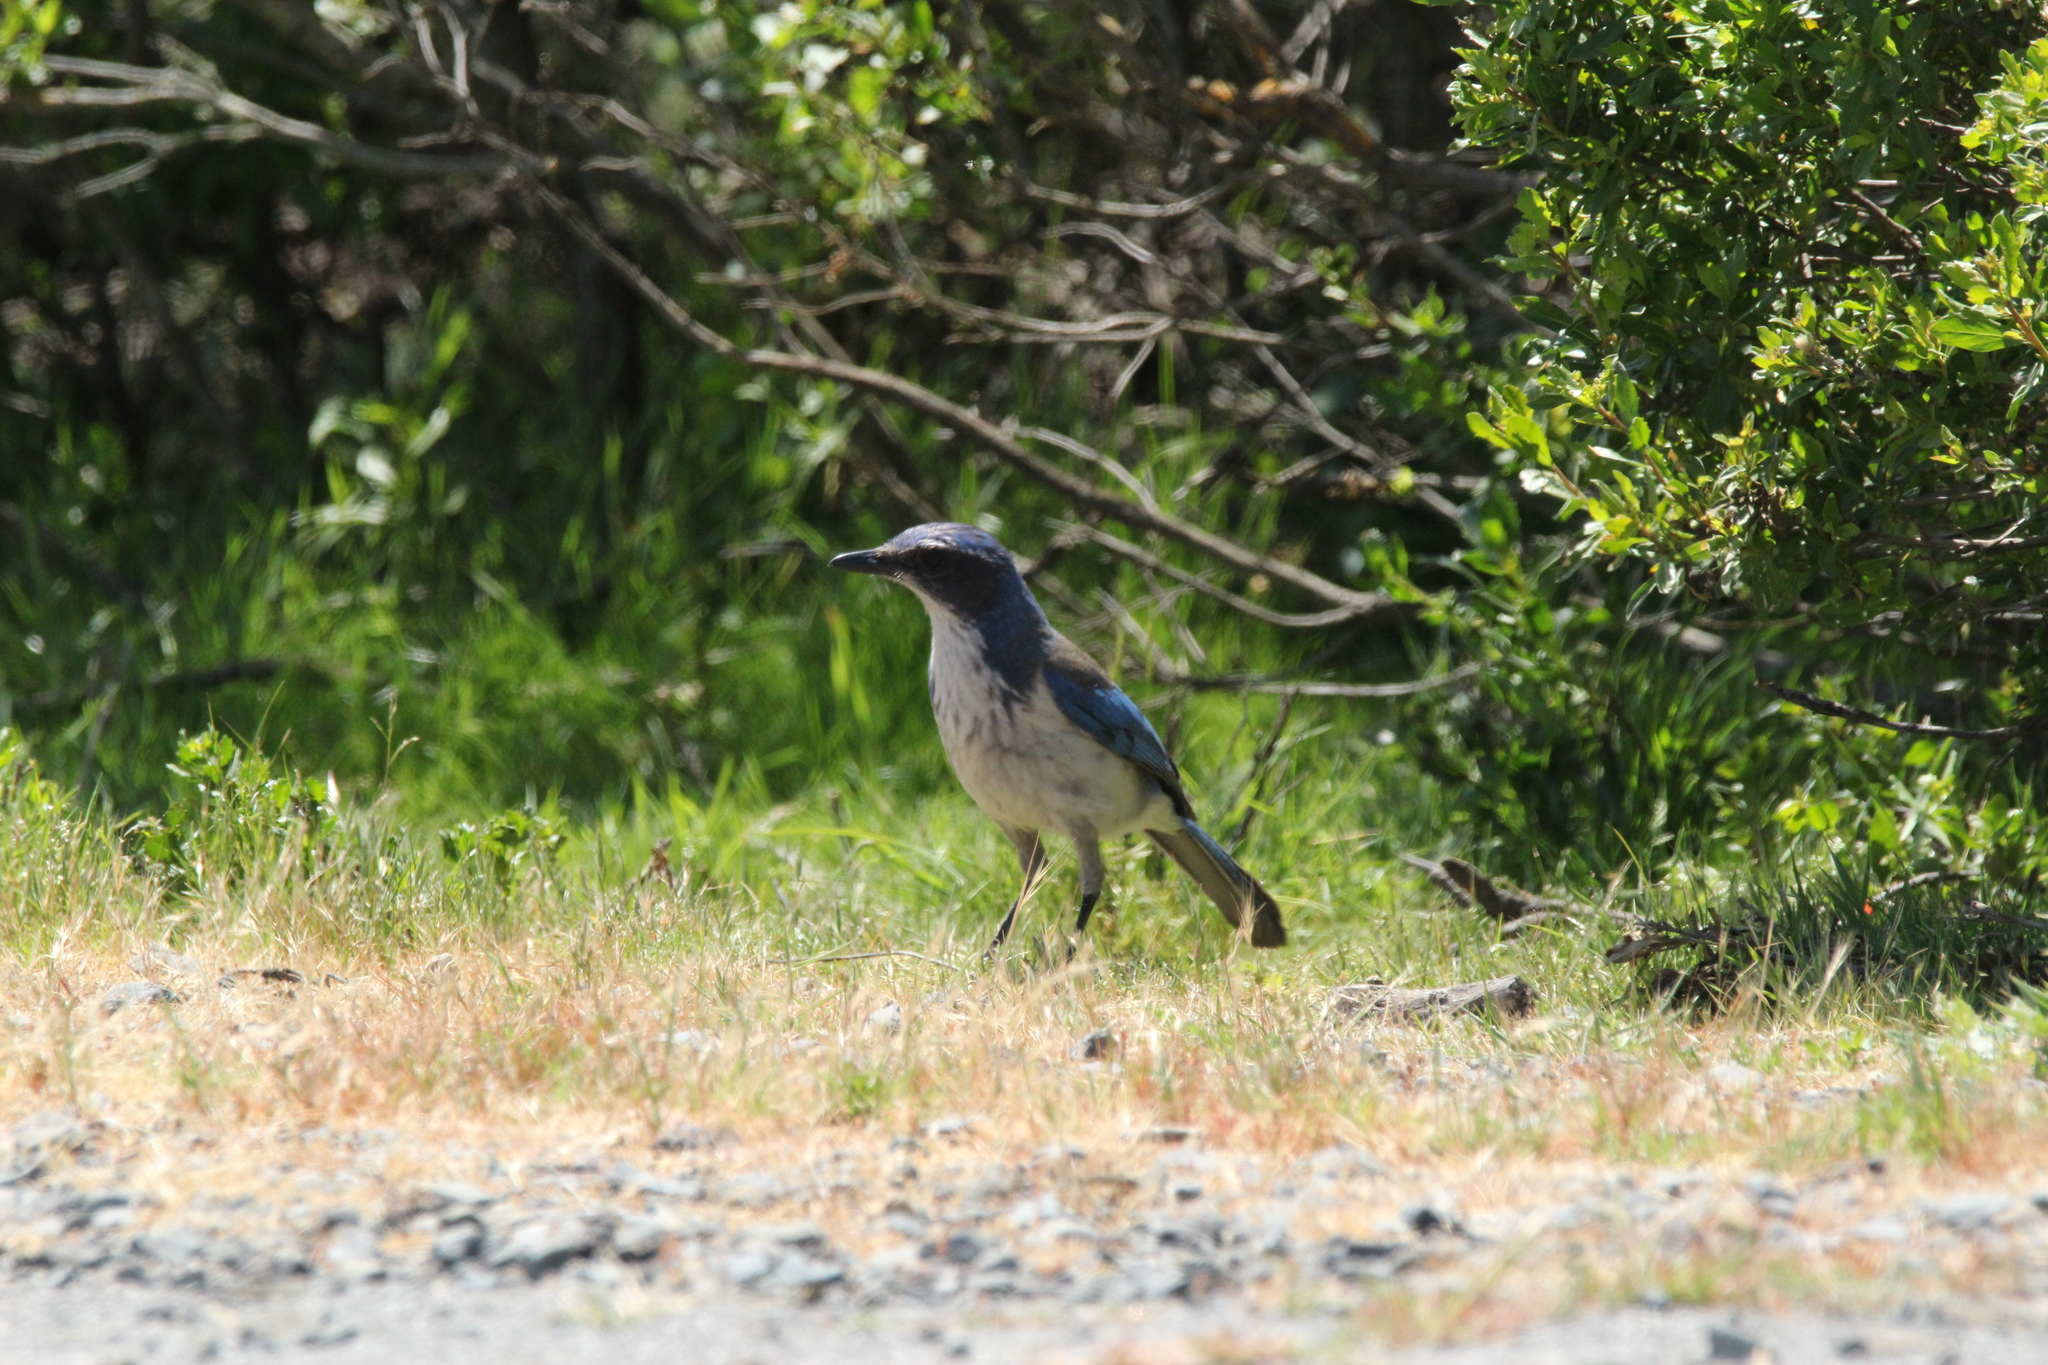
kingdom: Animalia
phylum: Chordata
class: Aves
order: Passeriformes
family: Corvidae
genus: Aphelocoma
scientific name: Aphelocoma californica
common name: California scrub-jay
